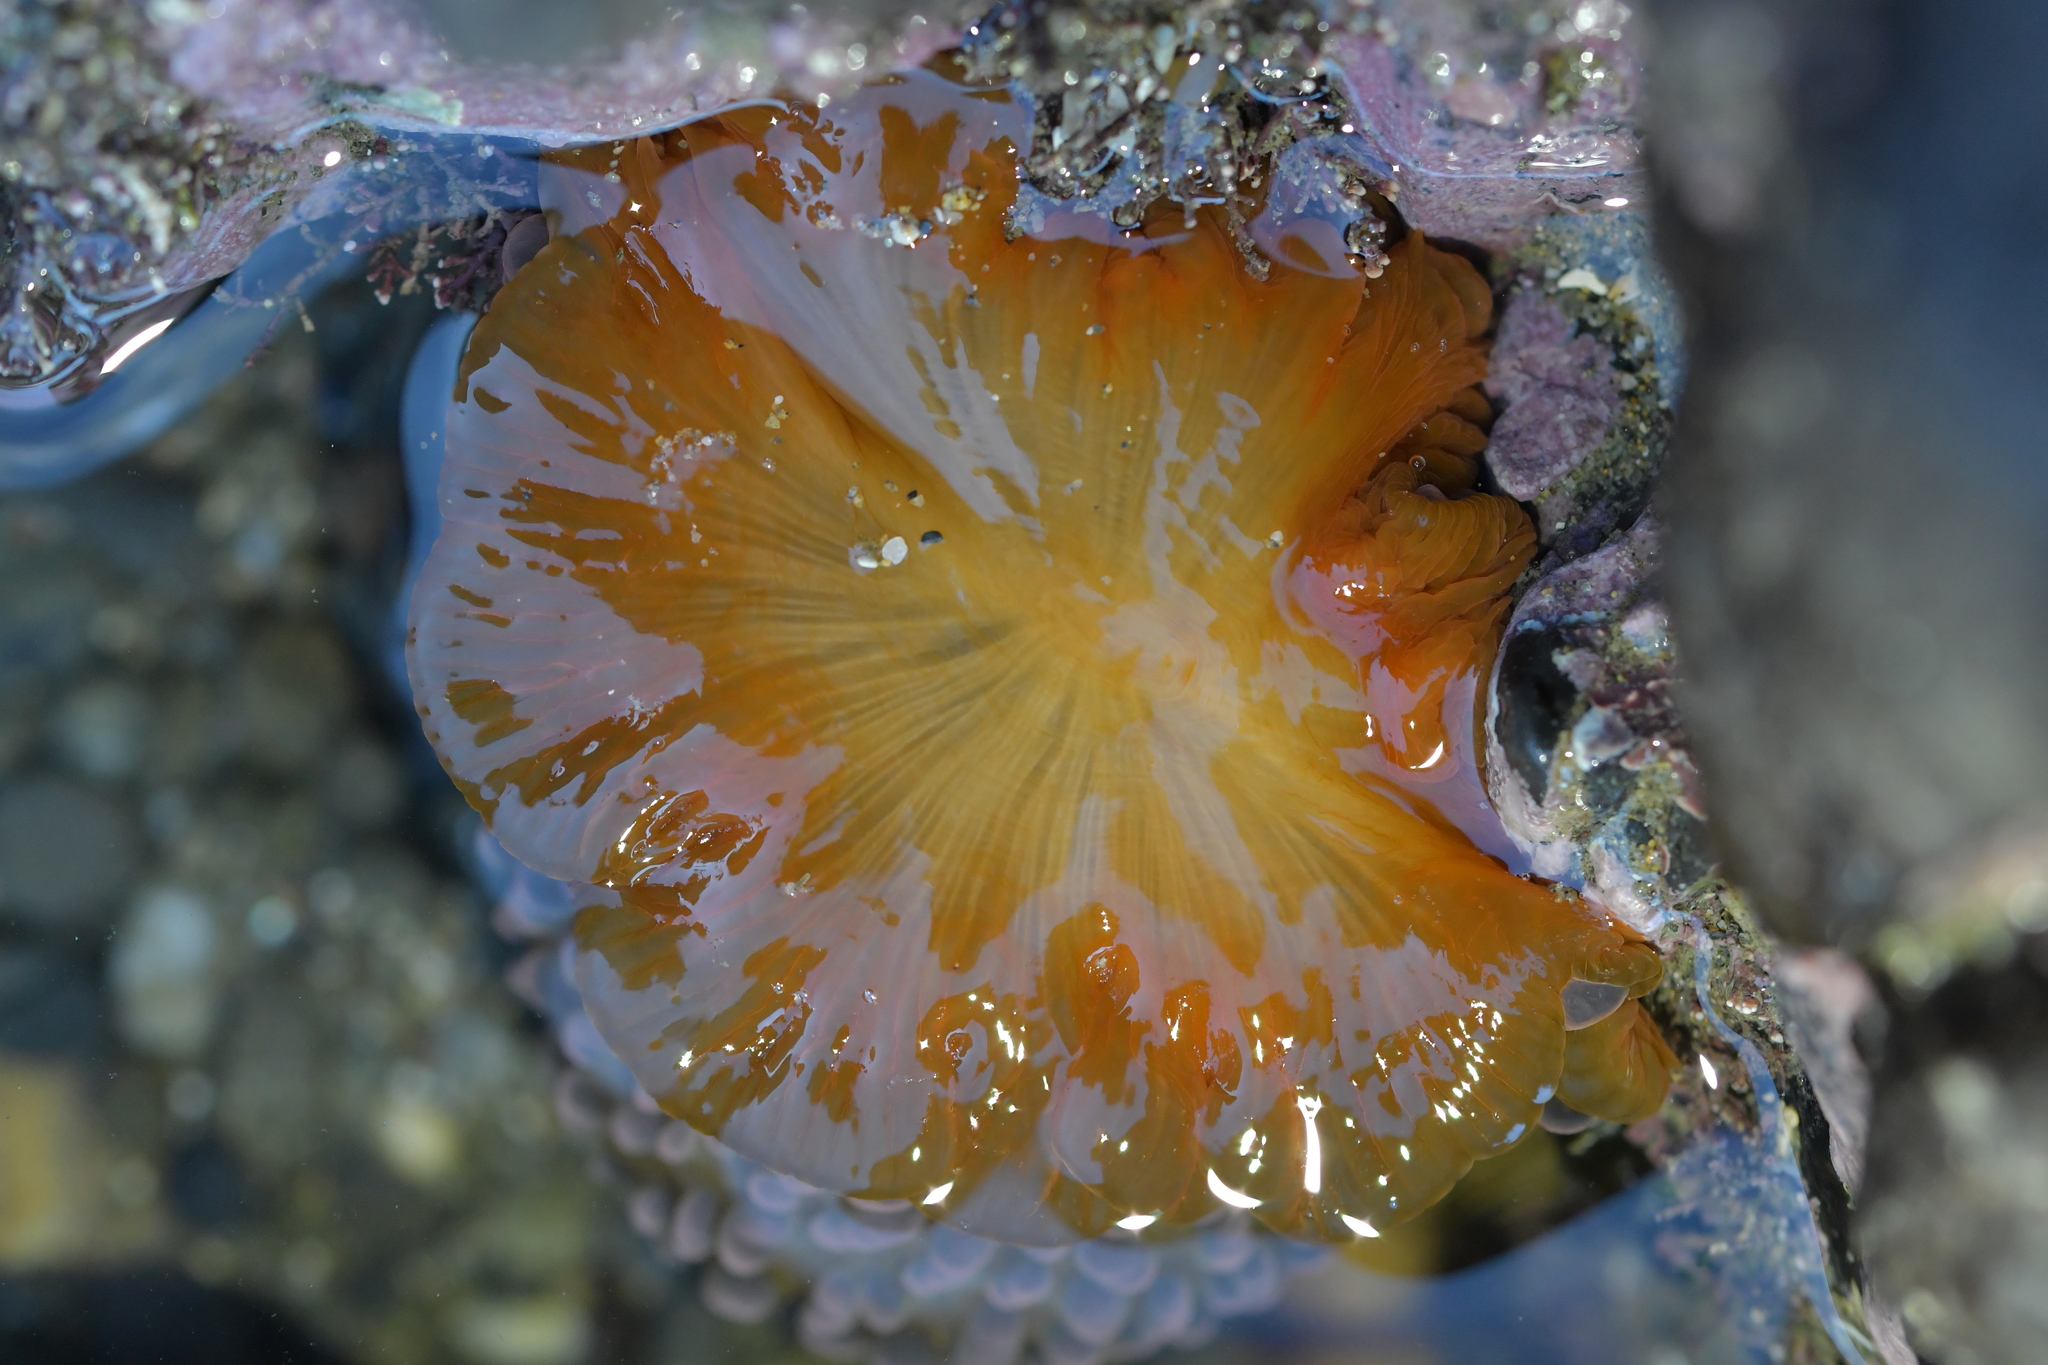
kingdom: Animalia
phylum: Cnidaria
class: Anthozoa
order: Actiniaria
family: Actiniidae
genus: Phlyctenactis
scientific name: Phlyctenactis tuberculosa
